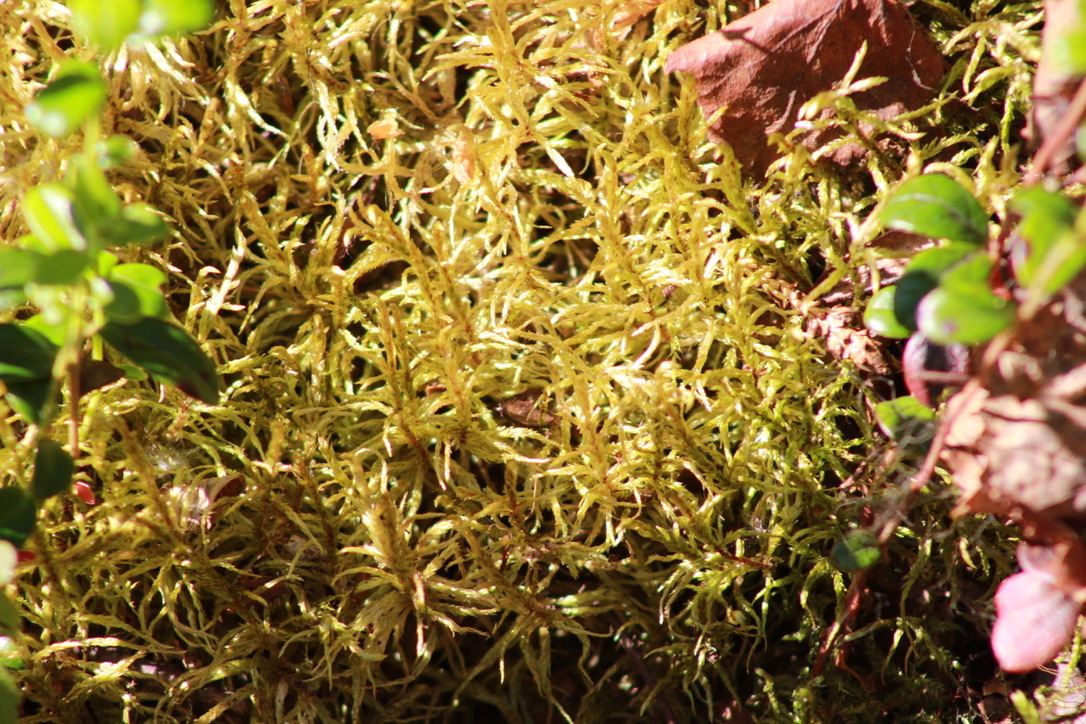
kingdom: Plantae
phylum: Bryophyta
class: Bryopsida
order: Hypnales
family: Hylocomiaceae
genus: Pleurozium
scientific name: Pleurozium schreberi
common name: Red-stemmed feather moss
